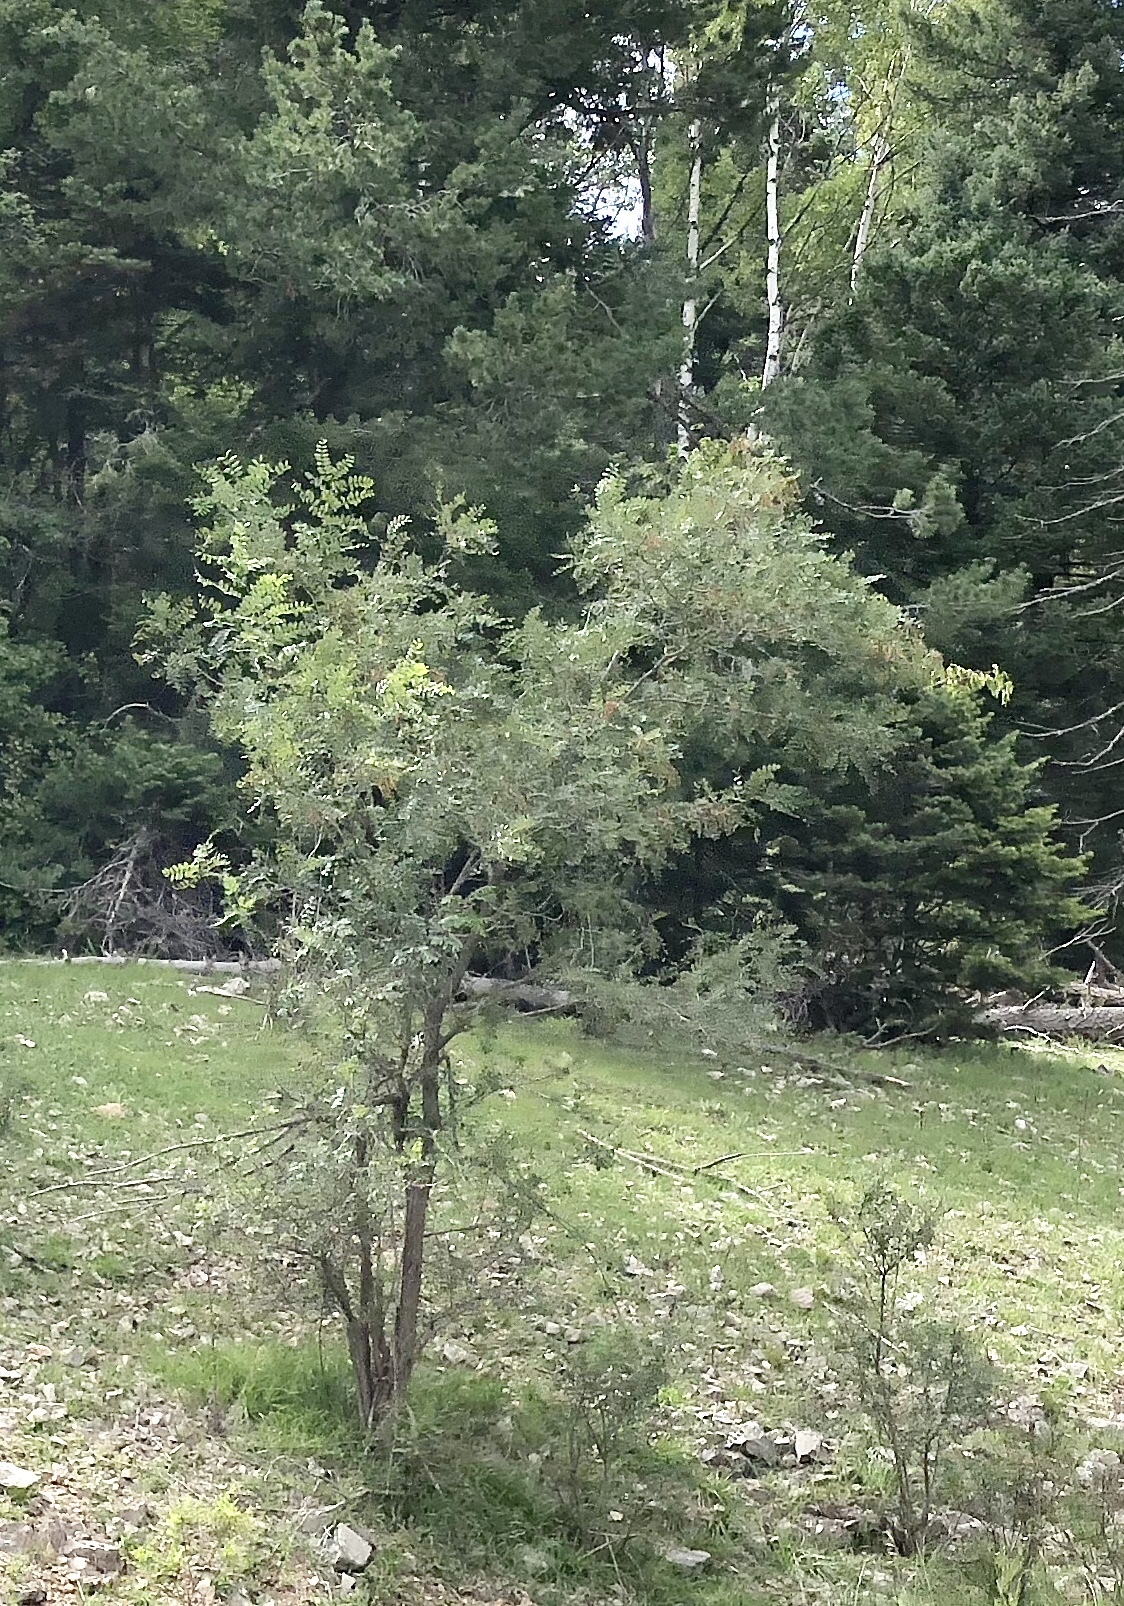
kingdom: Plantae
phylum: Tracheophyta
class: Magnoliopsida
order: Fabales
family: Fabaceae
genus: Robinia
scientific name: Robinia neomexicana
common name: New mexico locust
